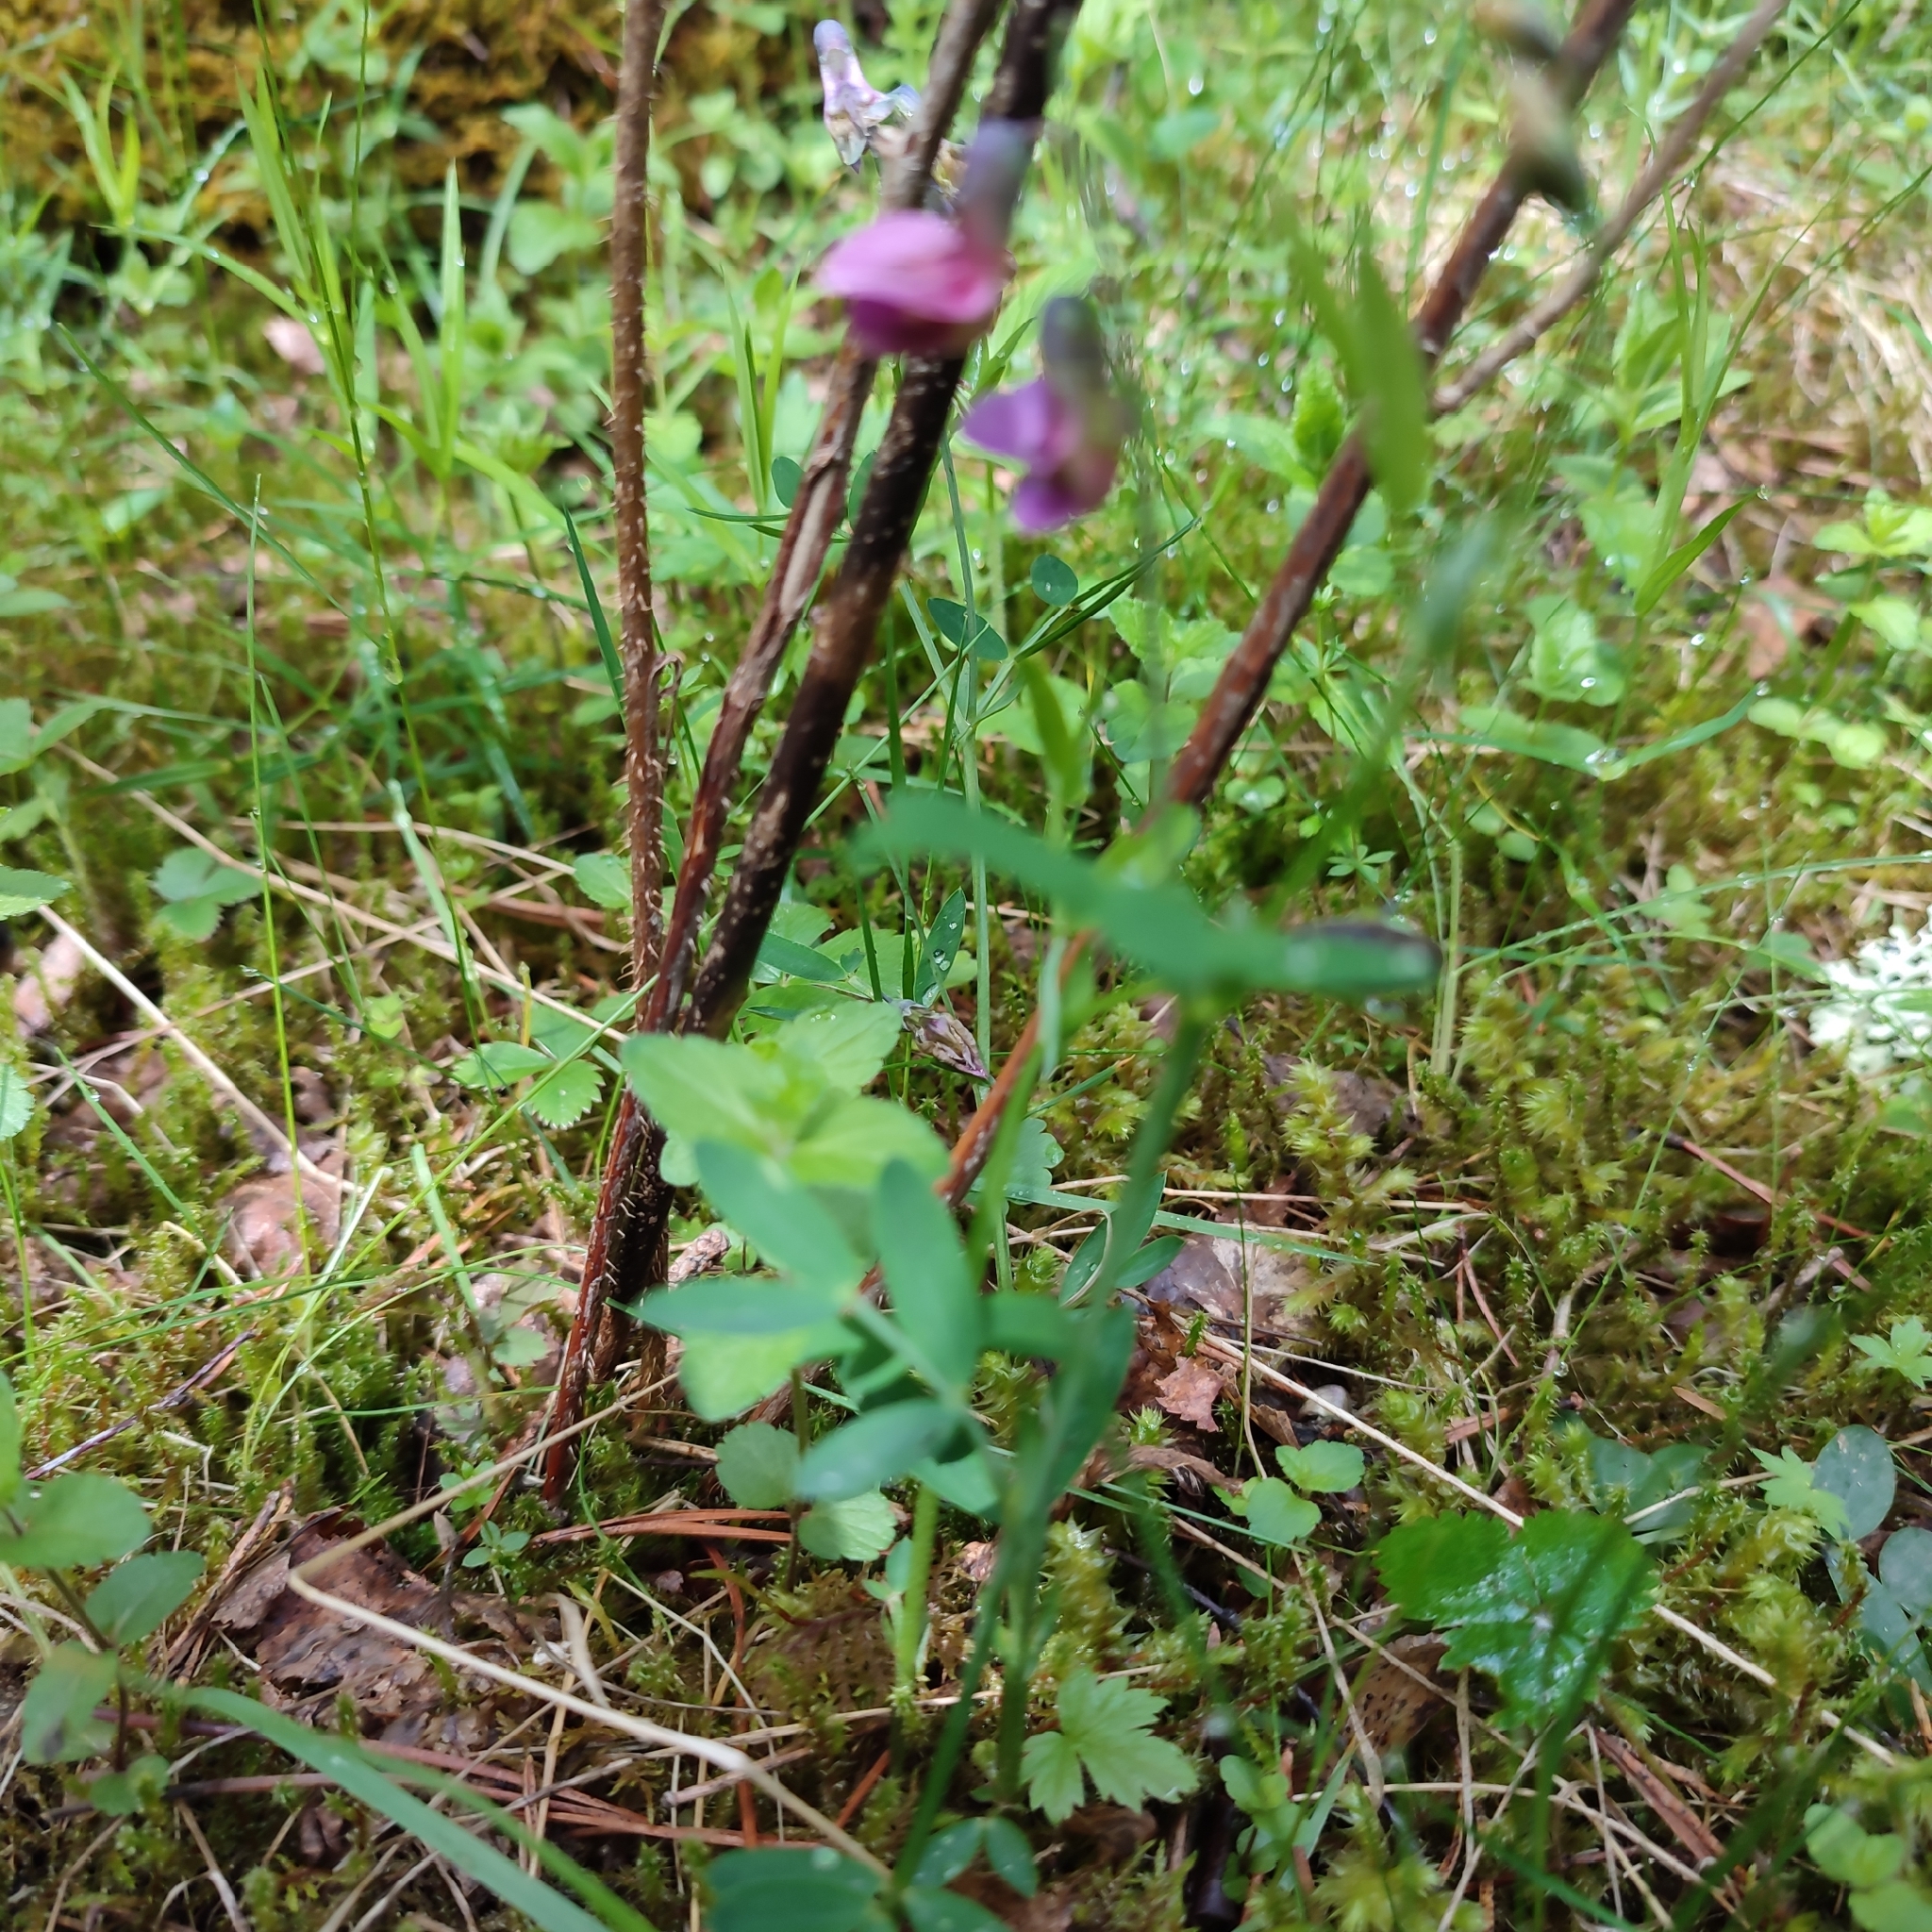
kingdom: Plantae
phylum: Tracheophyta
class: Magnoliopsida
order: Fabales
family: Fabaceae
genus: Lathyrus
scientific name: Lathyrus linifolius
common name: Bitter-vetch
